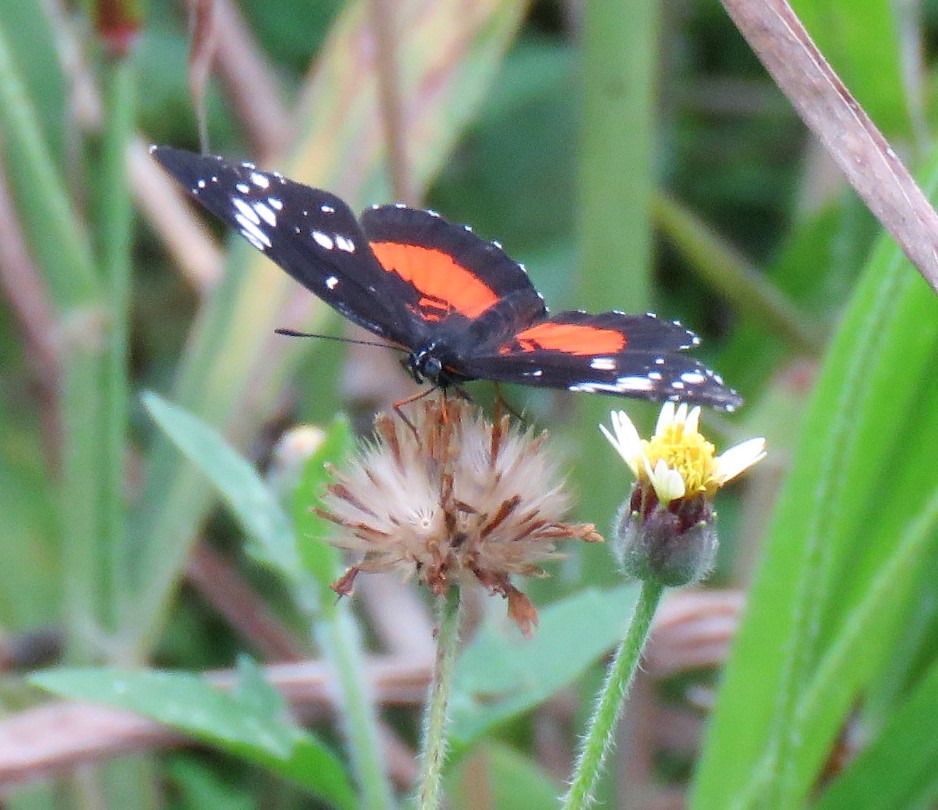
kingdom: Animalia
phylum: Arthropoda
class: Insecta
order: Lepidoptera
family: Nymphalidae
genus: Chlosyne
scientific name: Chlosyne janais
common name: Crimson patch
